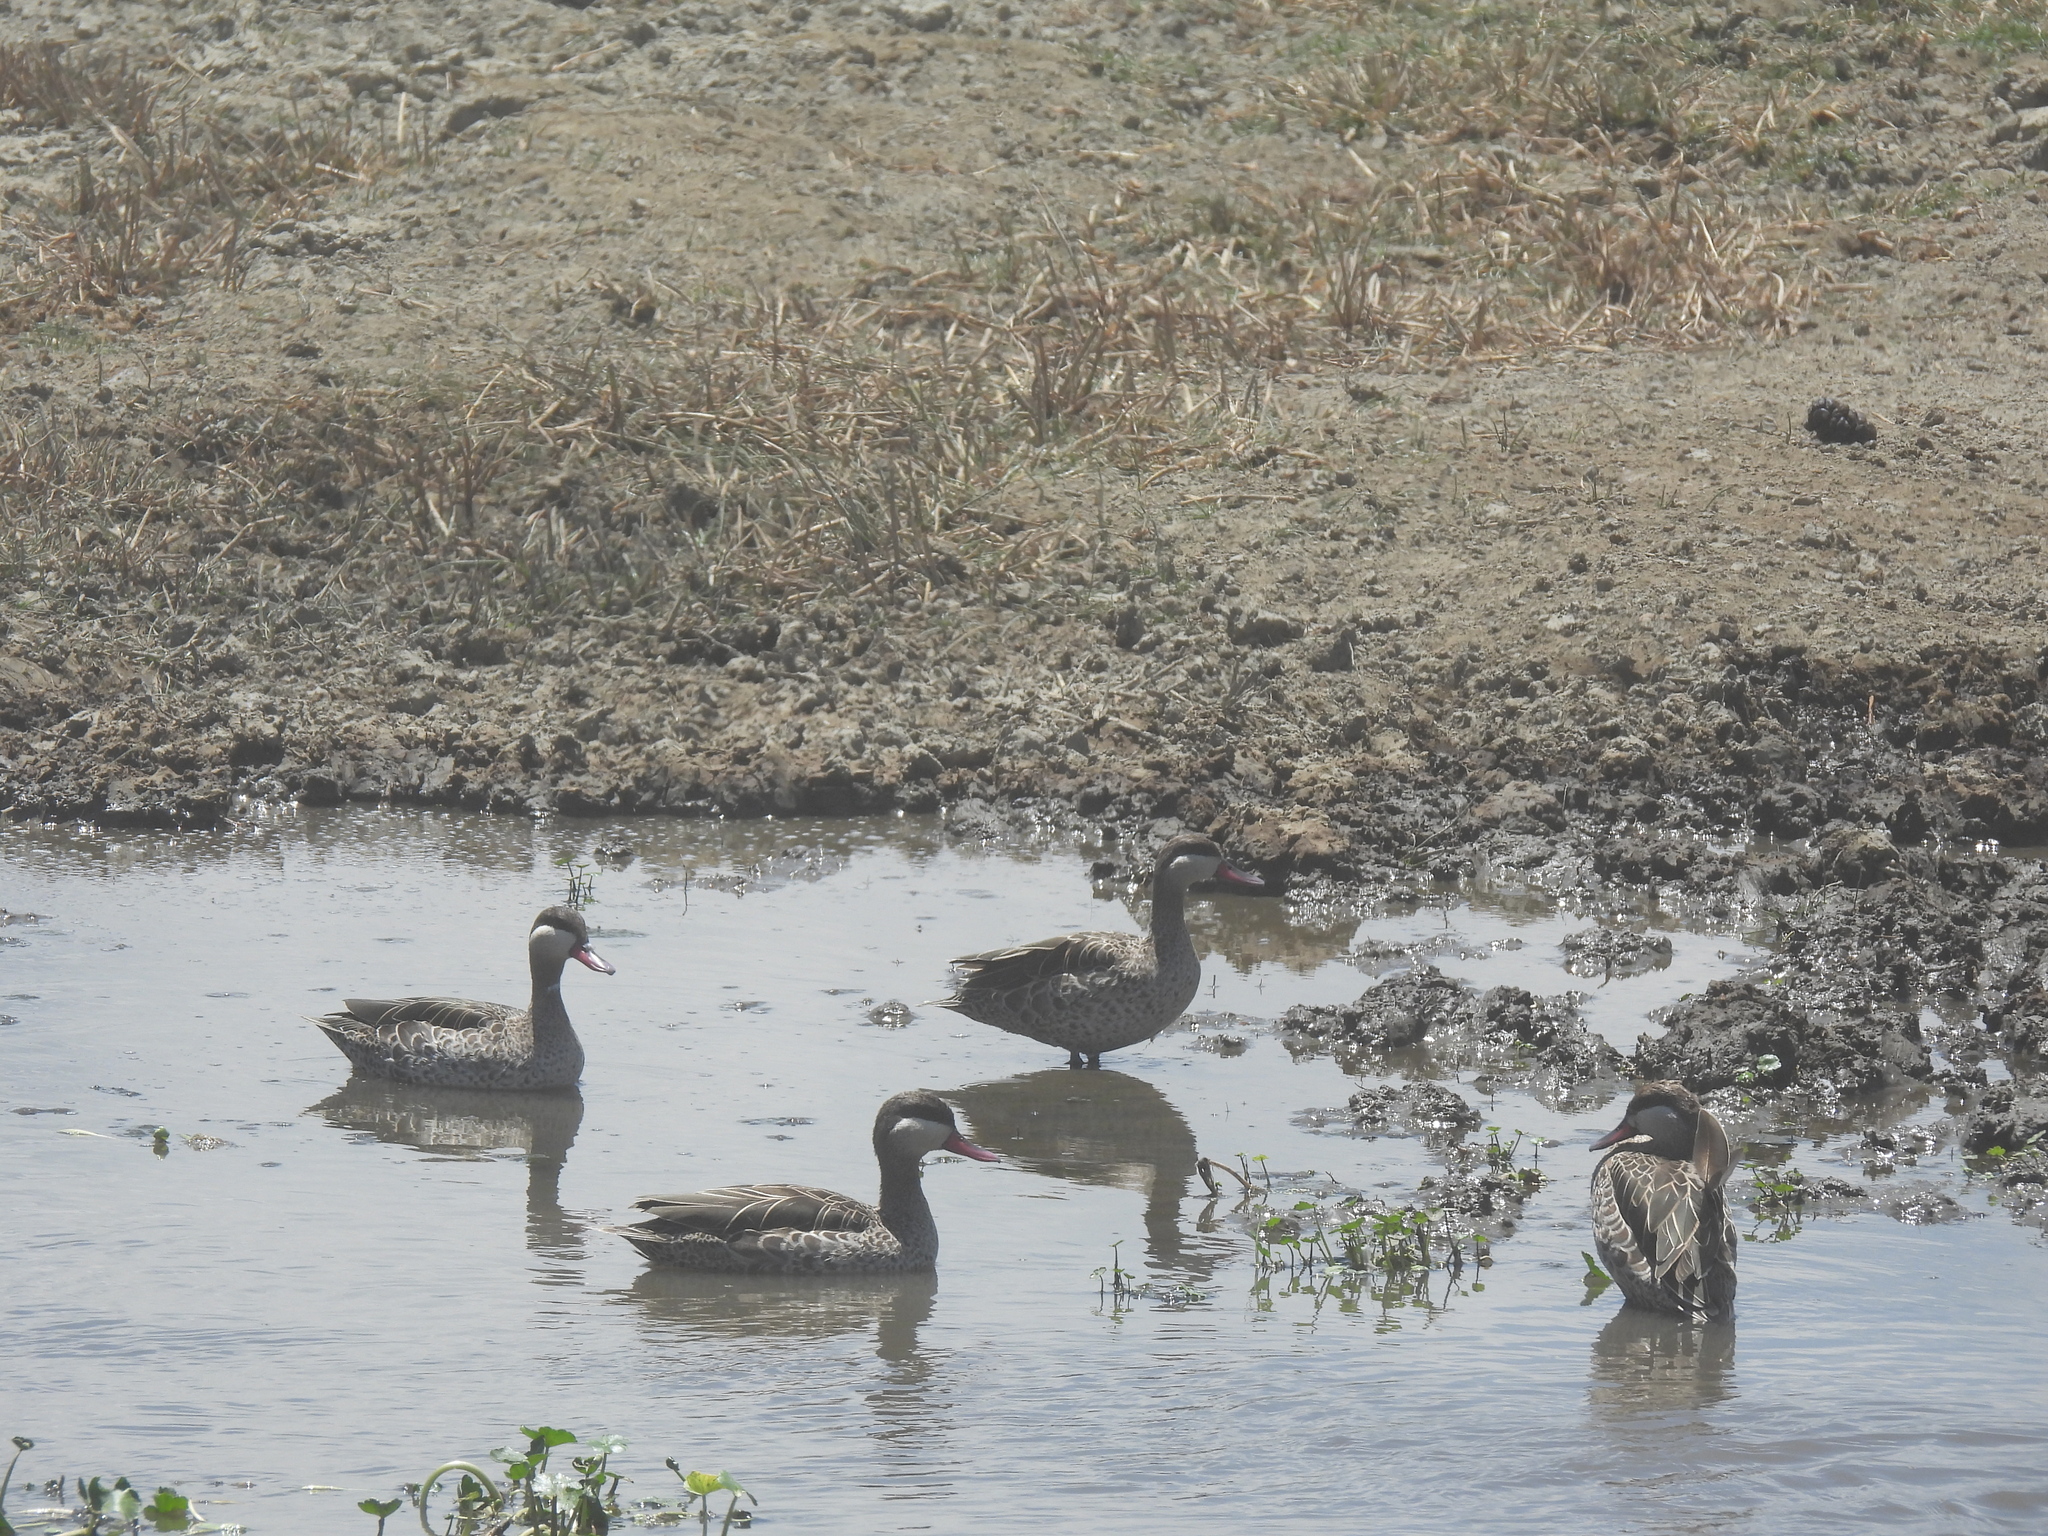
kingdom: Animalia
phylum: Chordata
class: Aves
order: Anseriformes
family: Anatidae
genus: Anas
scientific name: Anas erythrorhyncha
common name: Red-billed teal
